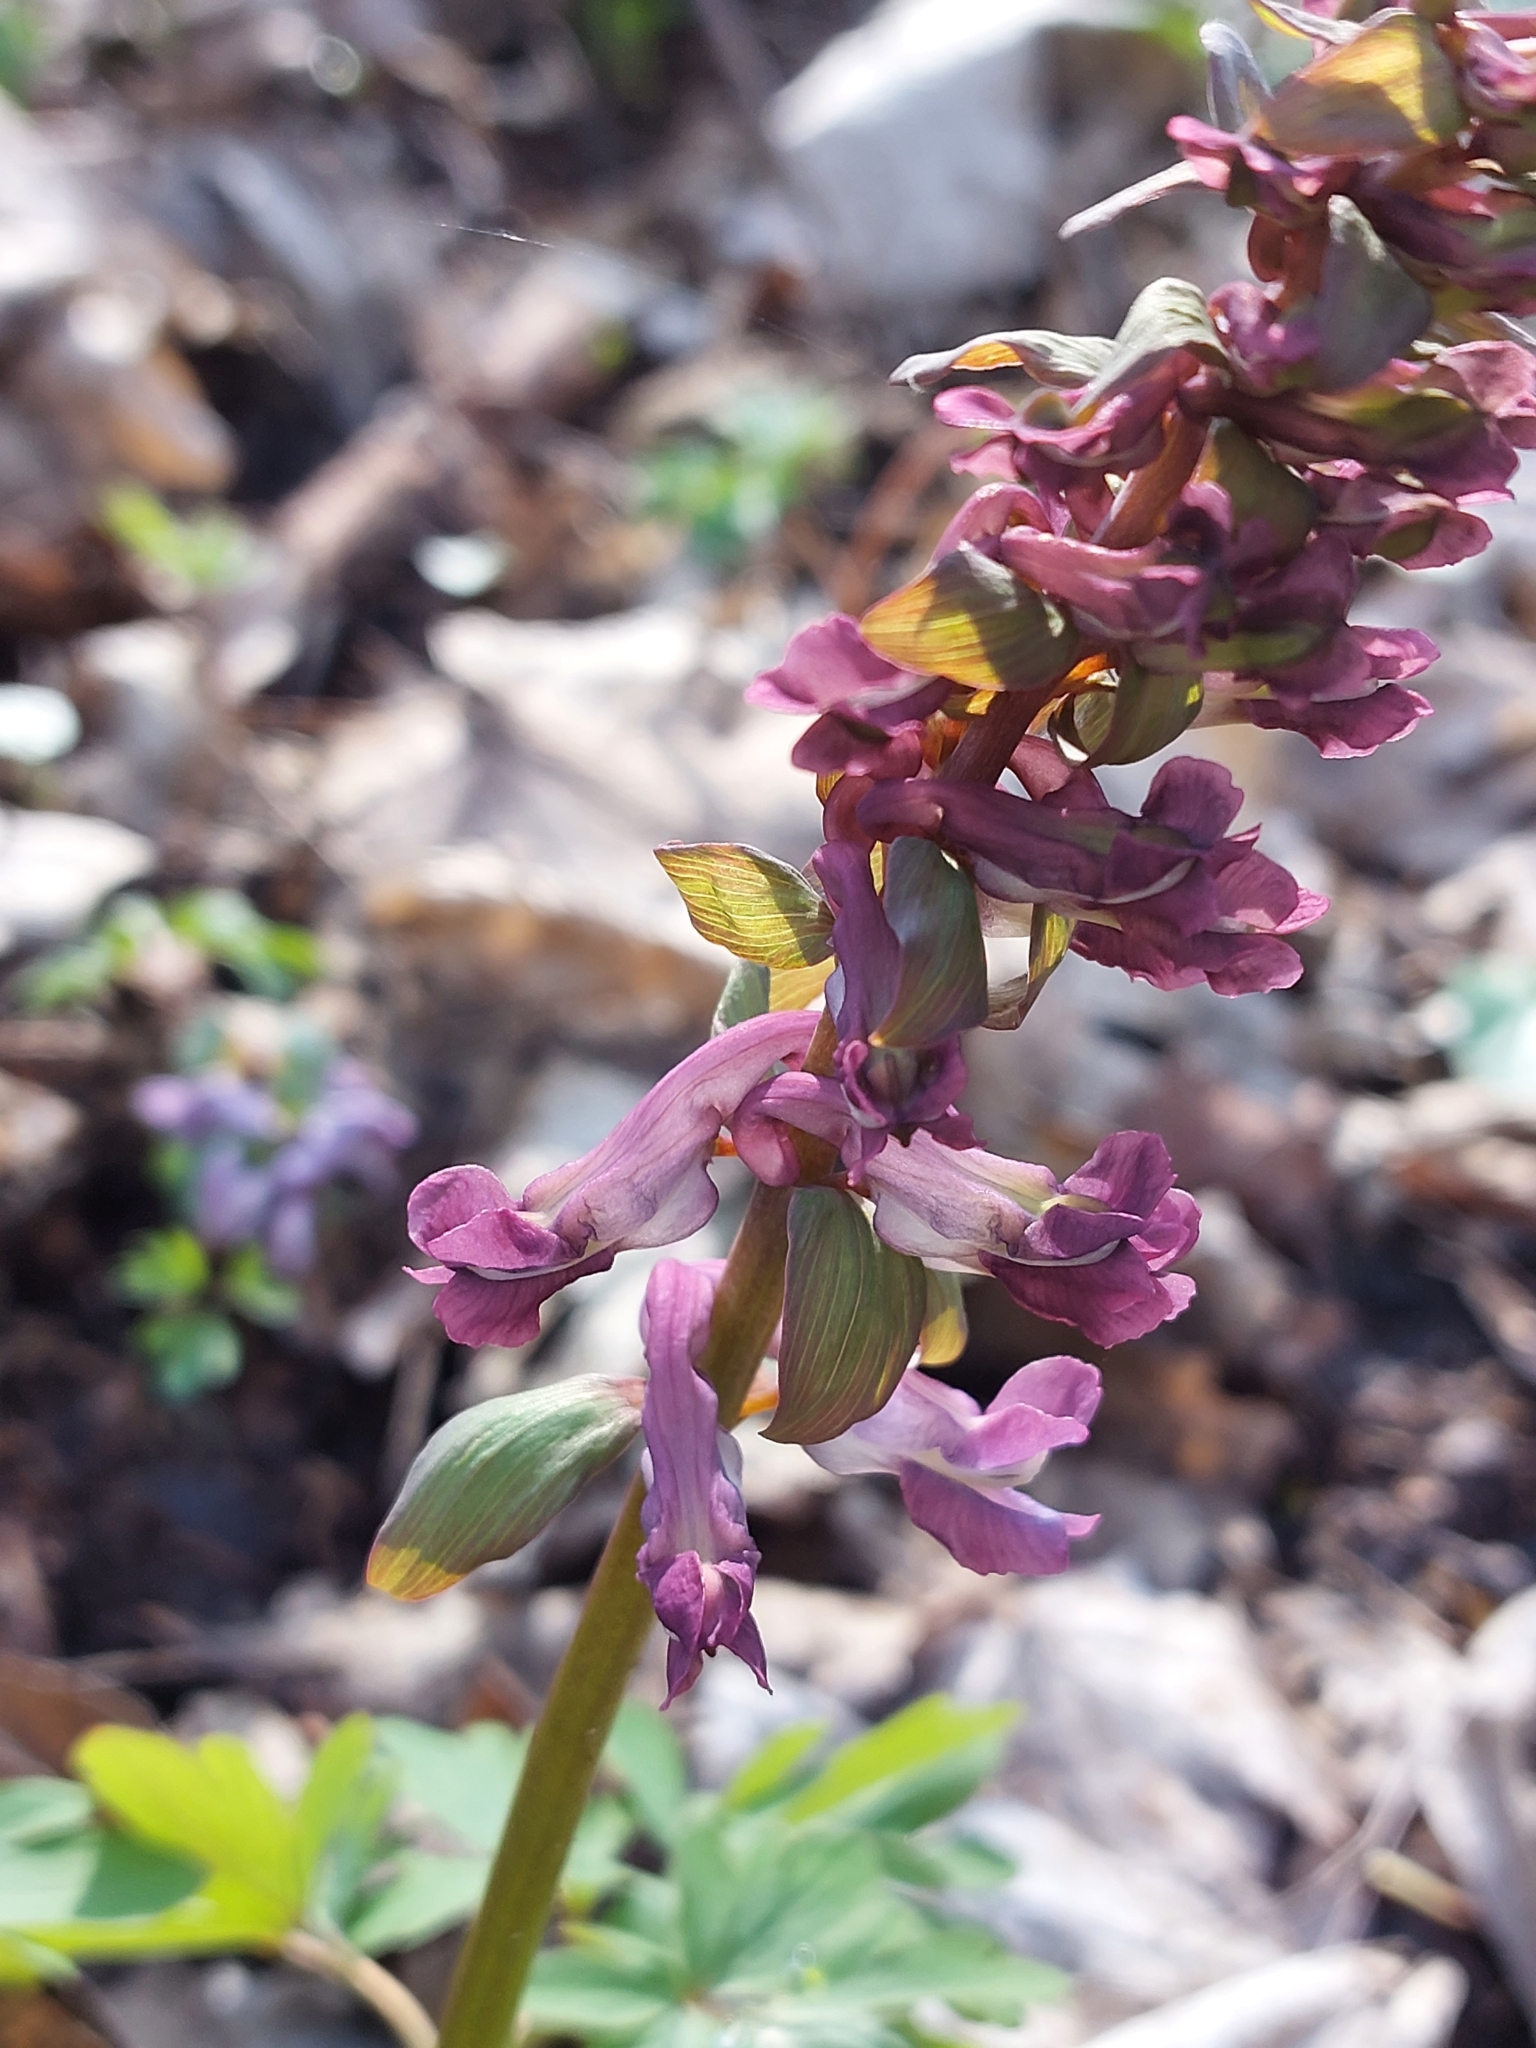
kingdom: Plantae
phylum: Tracheophyta
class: Magnoliopsida
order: Ranunculales
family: Papaveraceae
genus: Corydalis
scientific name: Corydalis cava
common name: Hollowroot
